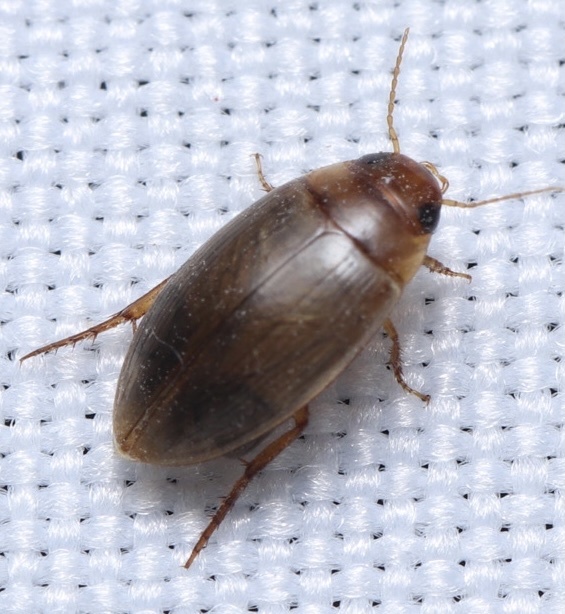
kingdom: Animalia
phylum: Arthropoda
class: Insecta
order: Coleoptera
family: Dytiscidae
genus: Copelatus
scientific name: Copelatus chevrolati
